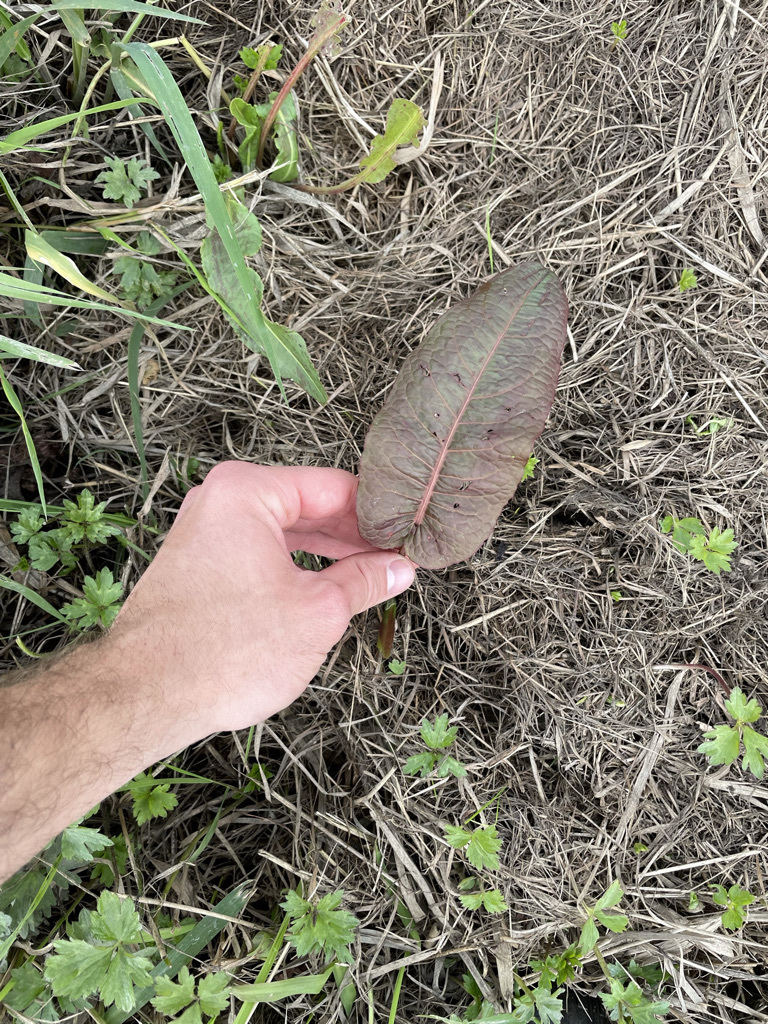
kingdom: Plantae
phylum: Tracheophyta
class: Magnoliopsida
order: Caryophyllales
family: Polygonaceae
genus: Rumex
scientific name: Rumex obtusifolius
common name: Bitter dock
